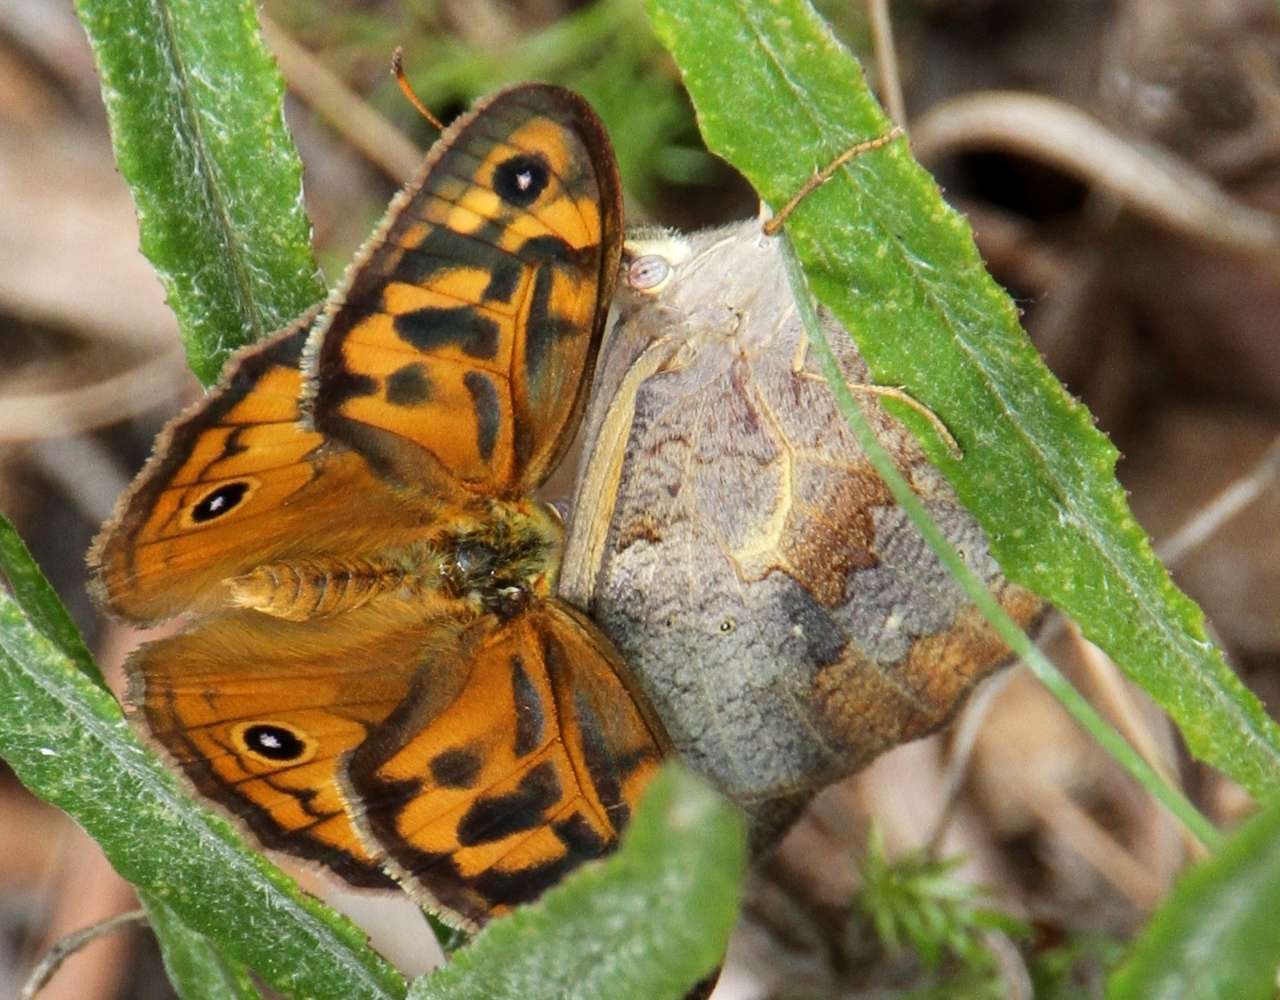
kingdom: Animalia
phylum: Arthropoda
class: Insecta
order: Lepidoptera
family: Nymphalidae
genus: Heteronympha
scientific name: Heteronympha merope
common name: Common brown
